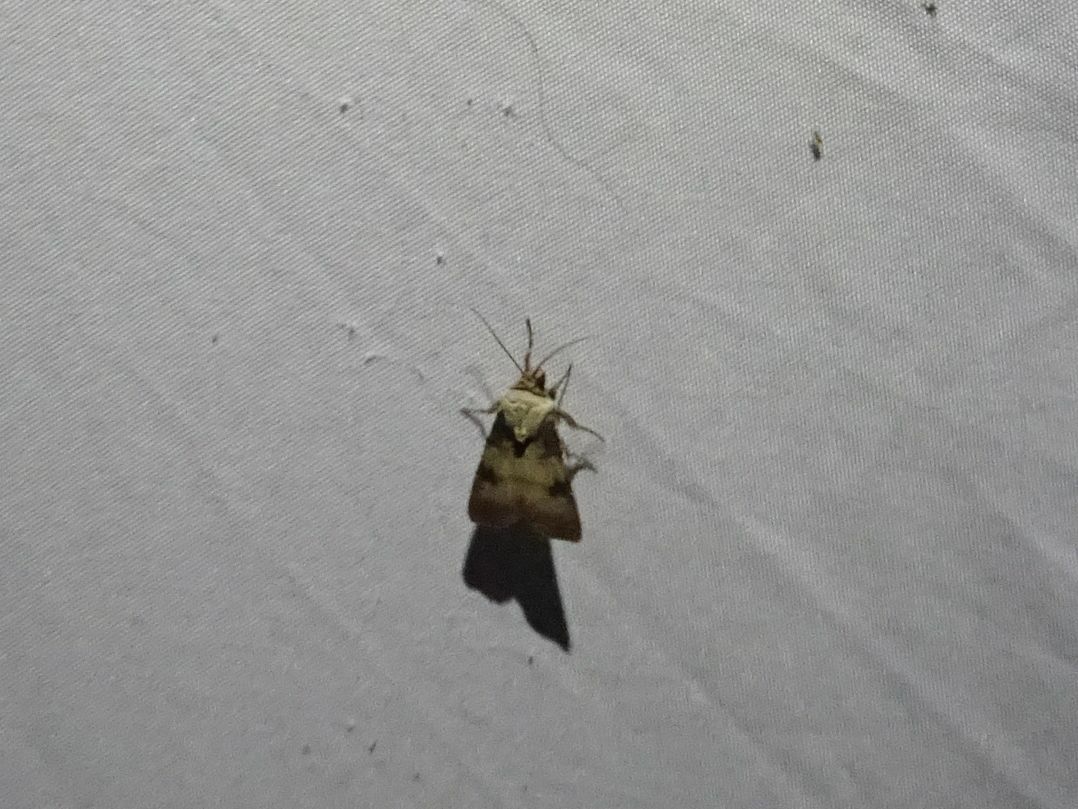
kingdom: Animalia
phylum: Arthropoda
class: Insecta
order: Lepidoptera
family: Noctuidae
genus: Agrotis
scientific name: Agrotis puta
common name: Shuttle-shaped dart
